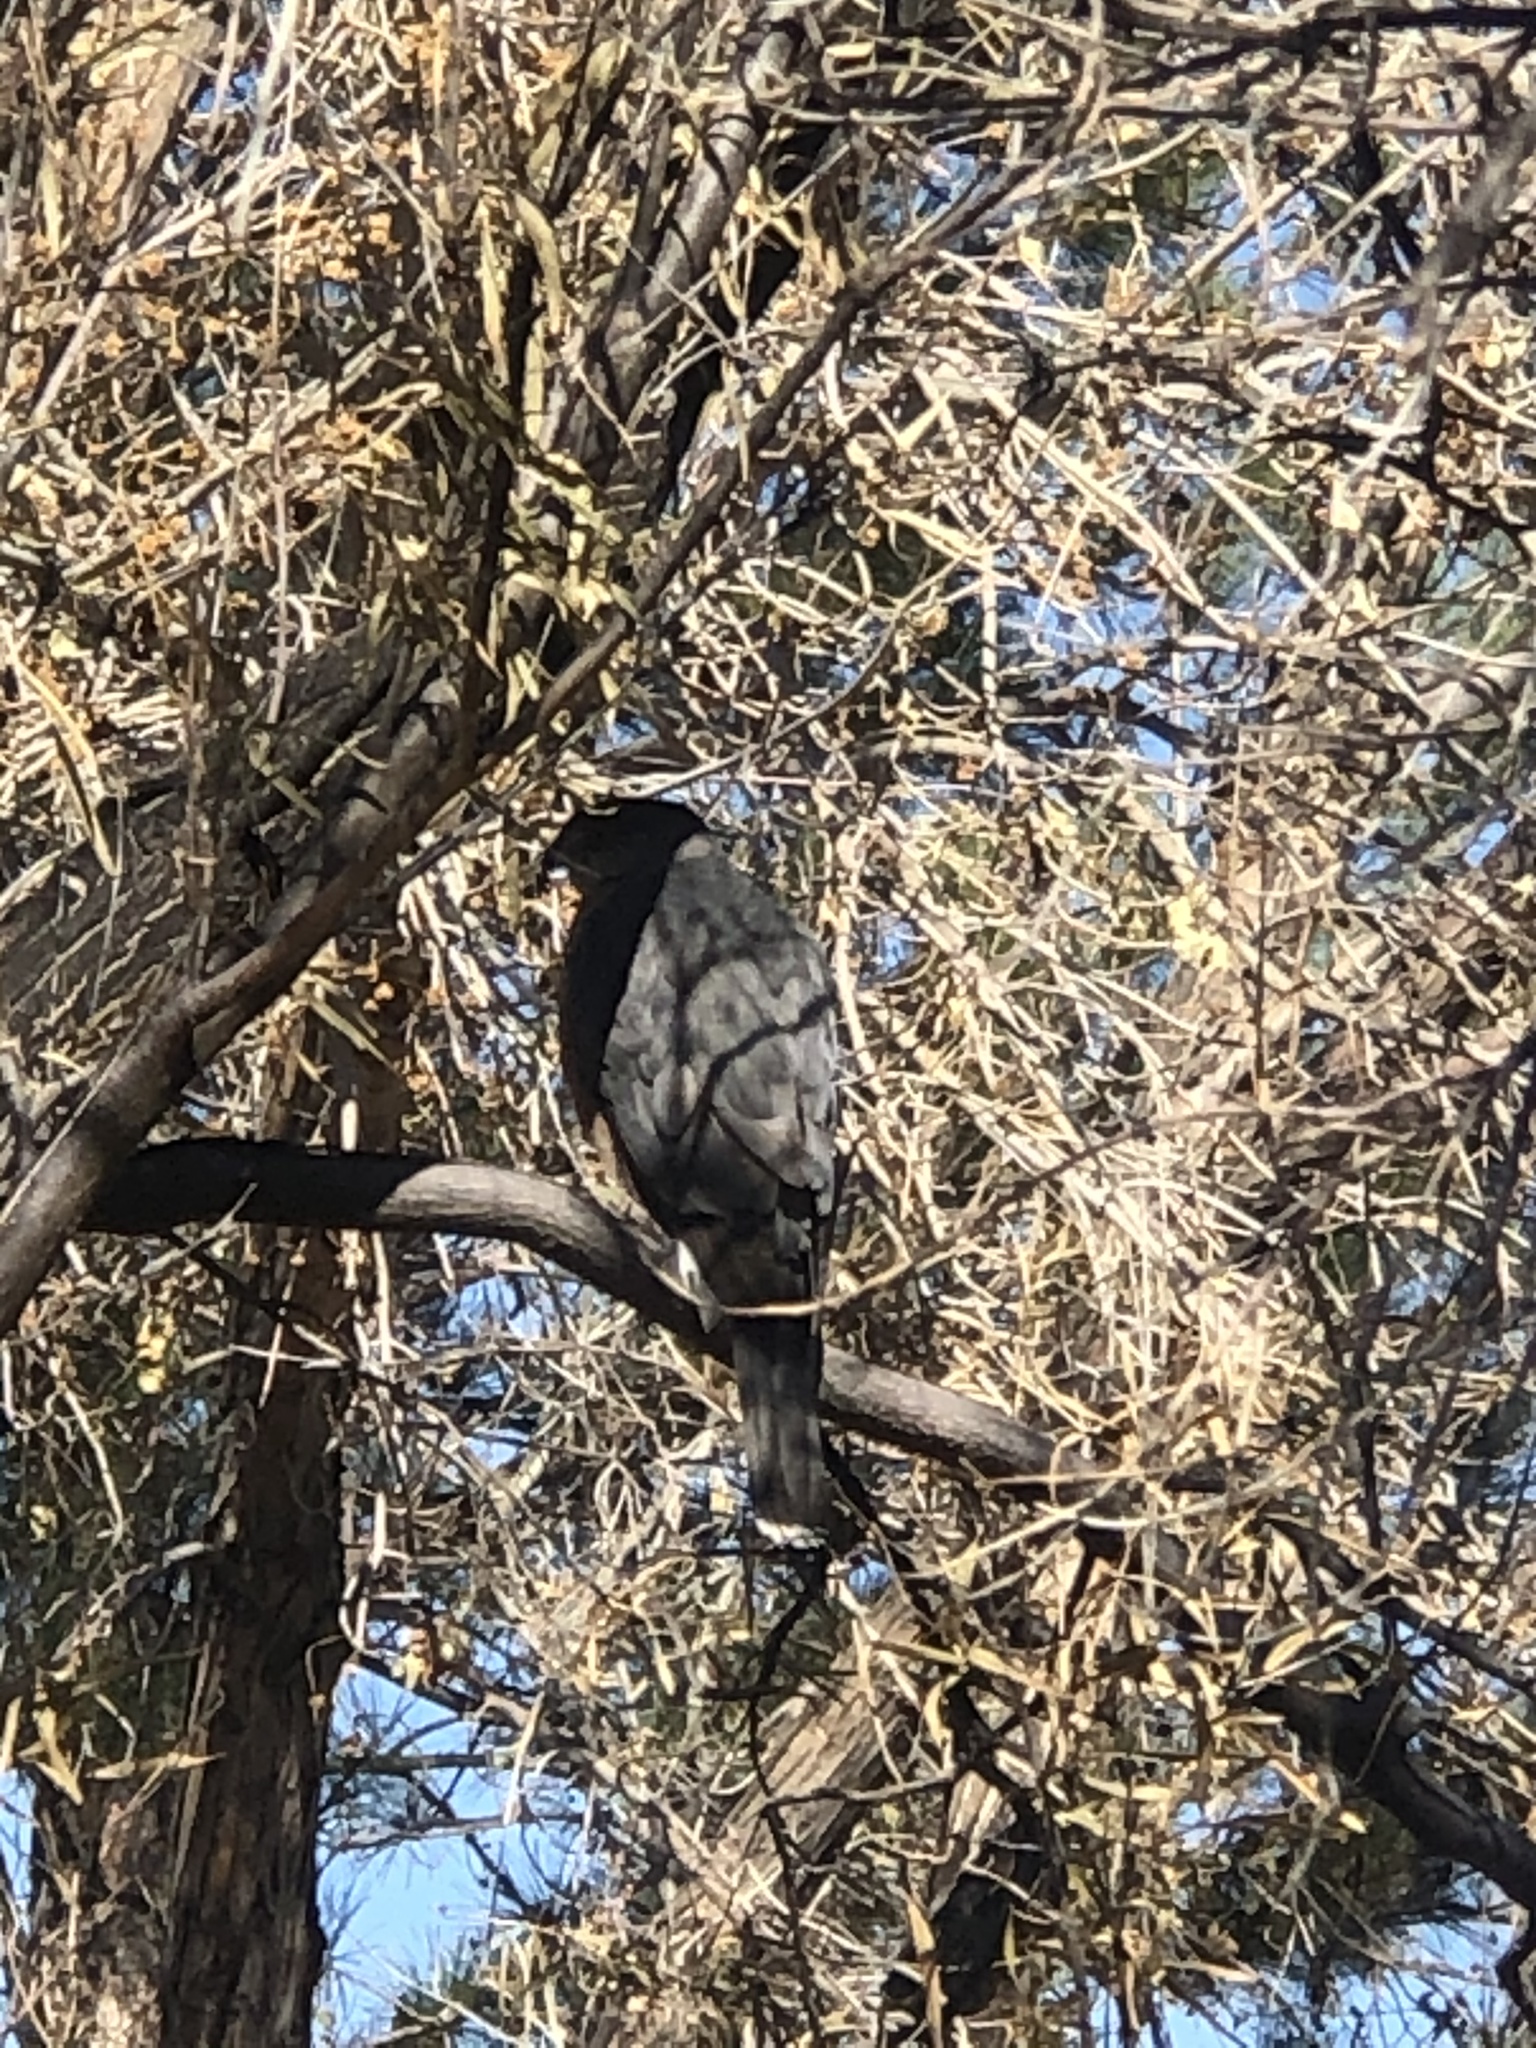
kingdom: Animalia
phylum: Chordata
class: Aves
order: Accipitriformes
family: Accipitridae
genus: Accipiter
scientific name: Accipiter cooperii
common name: Cooper's hawk
